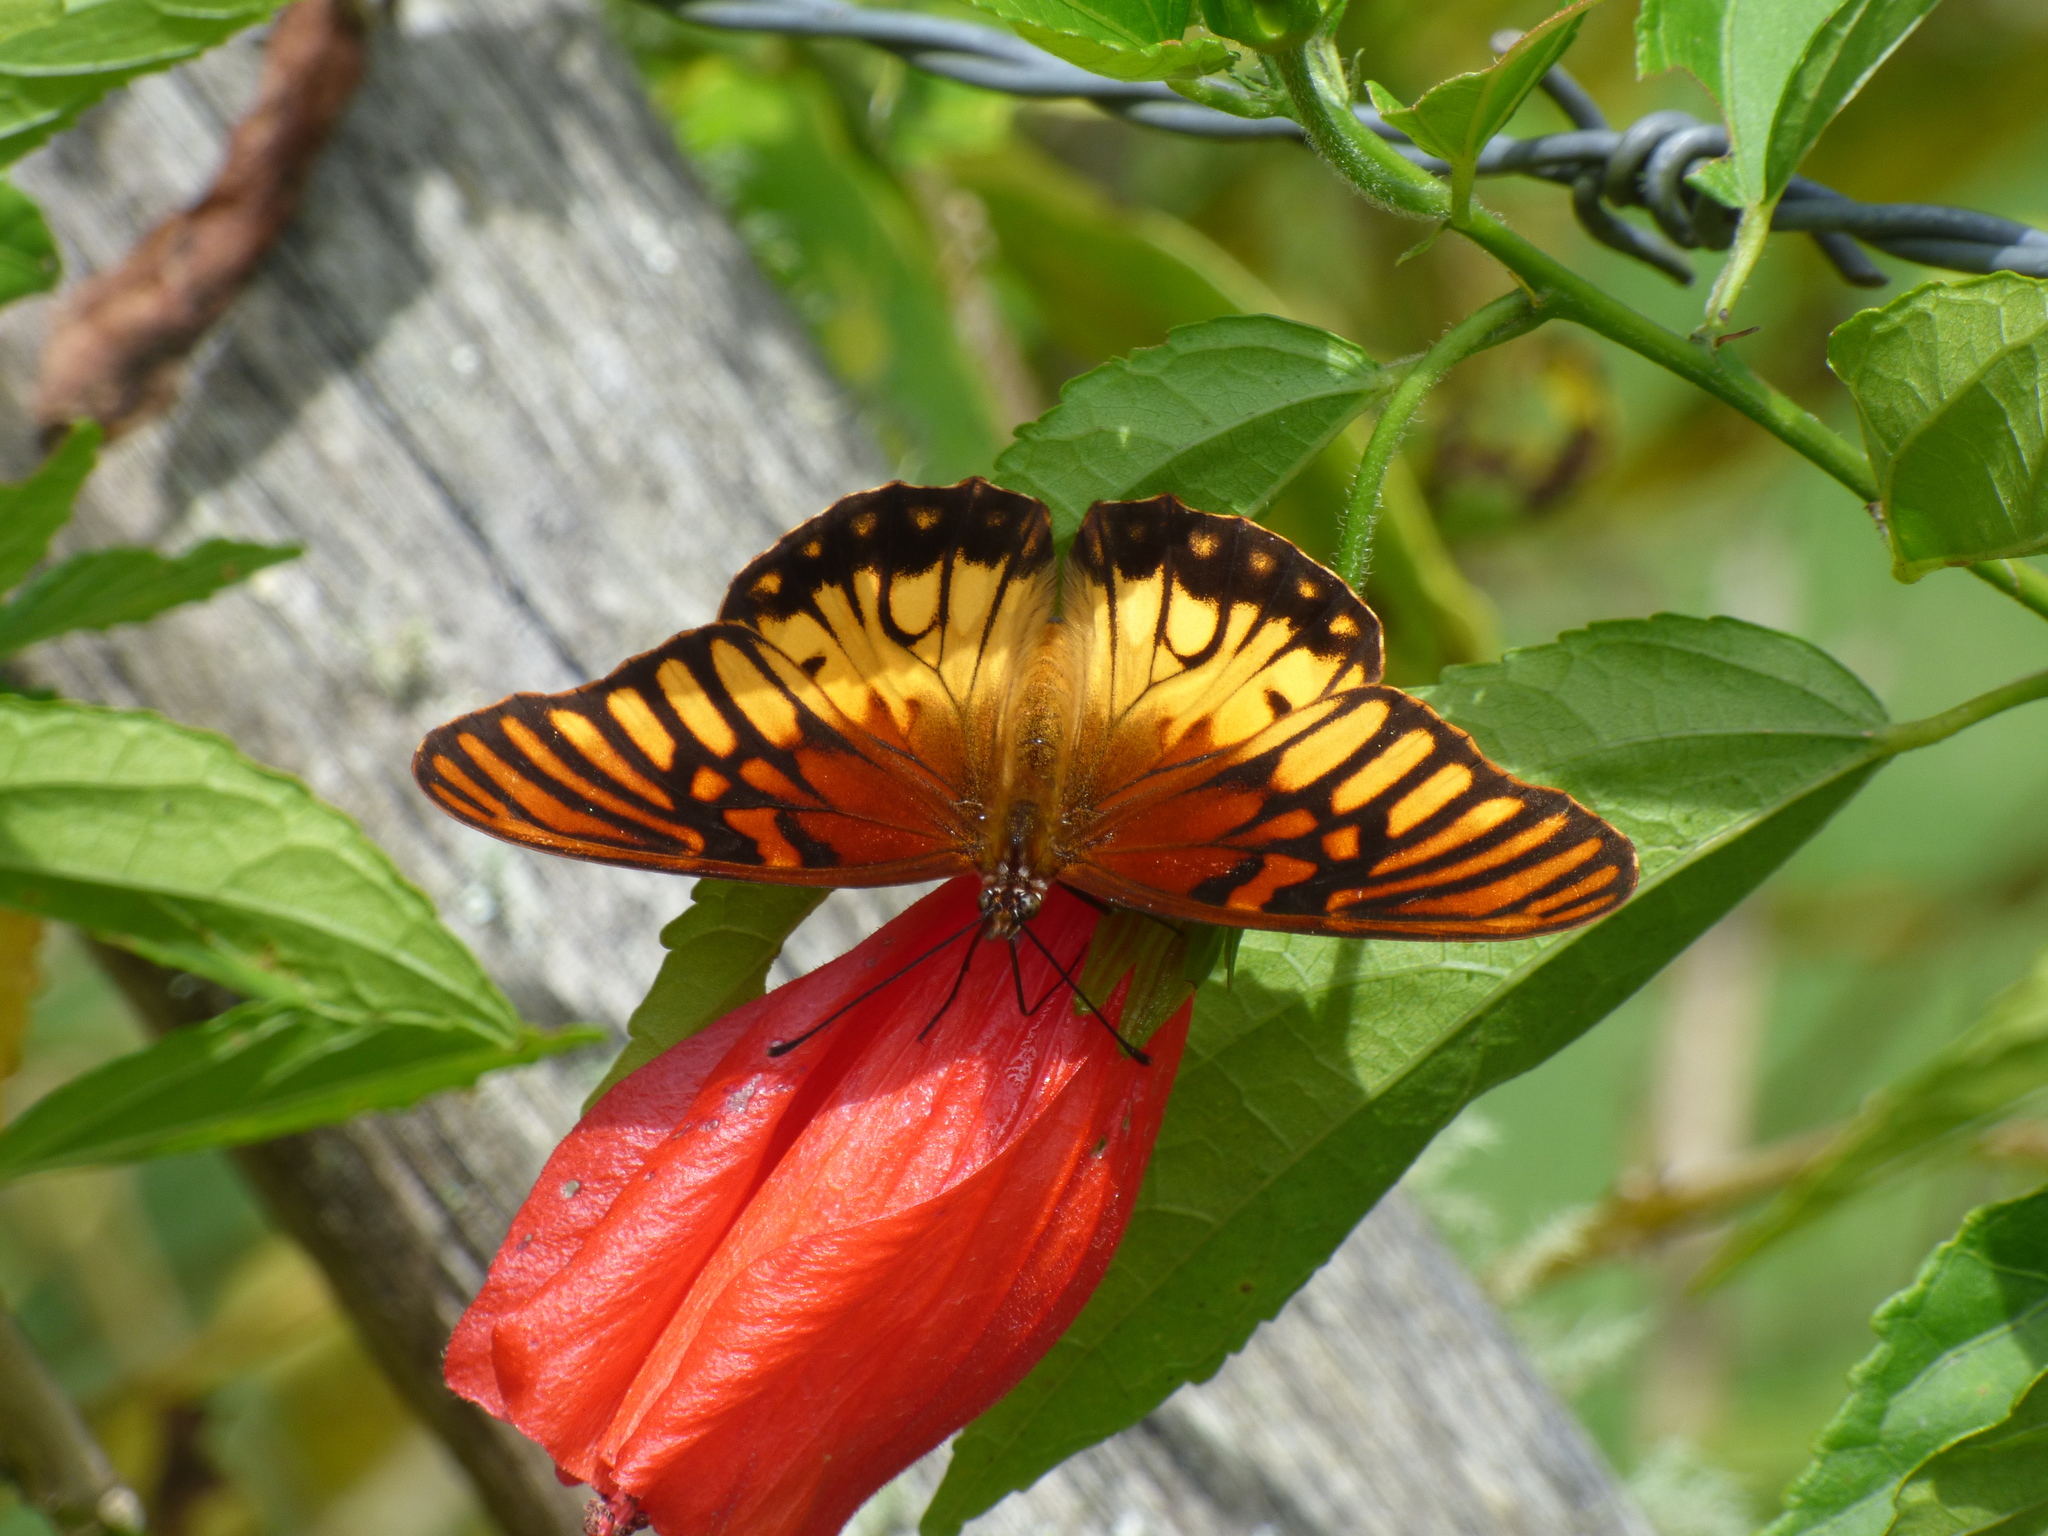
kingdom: Animalia
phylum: Arthropoda
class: Insecta
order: Lepidoptera
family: Nymphalidae
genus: Dione
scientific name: Dione moneta
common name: Mexican silverspot
